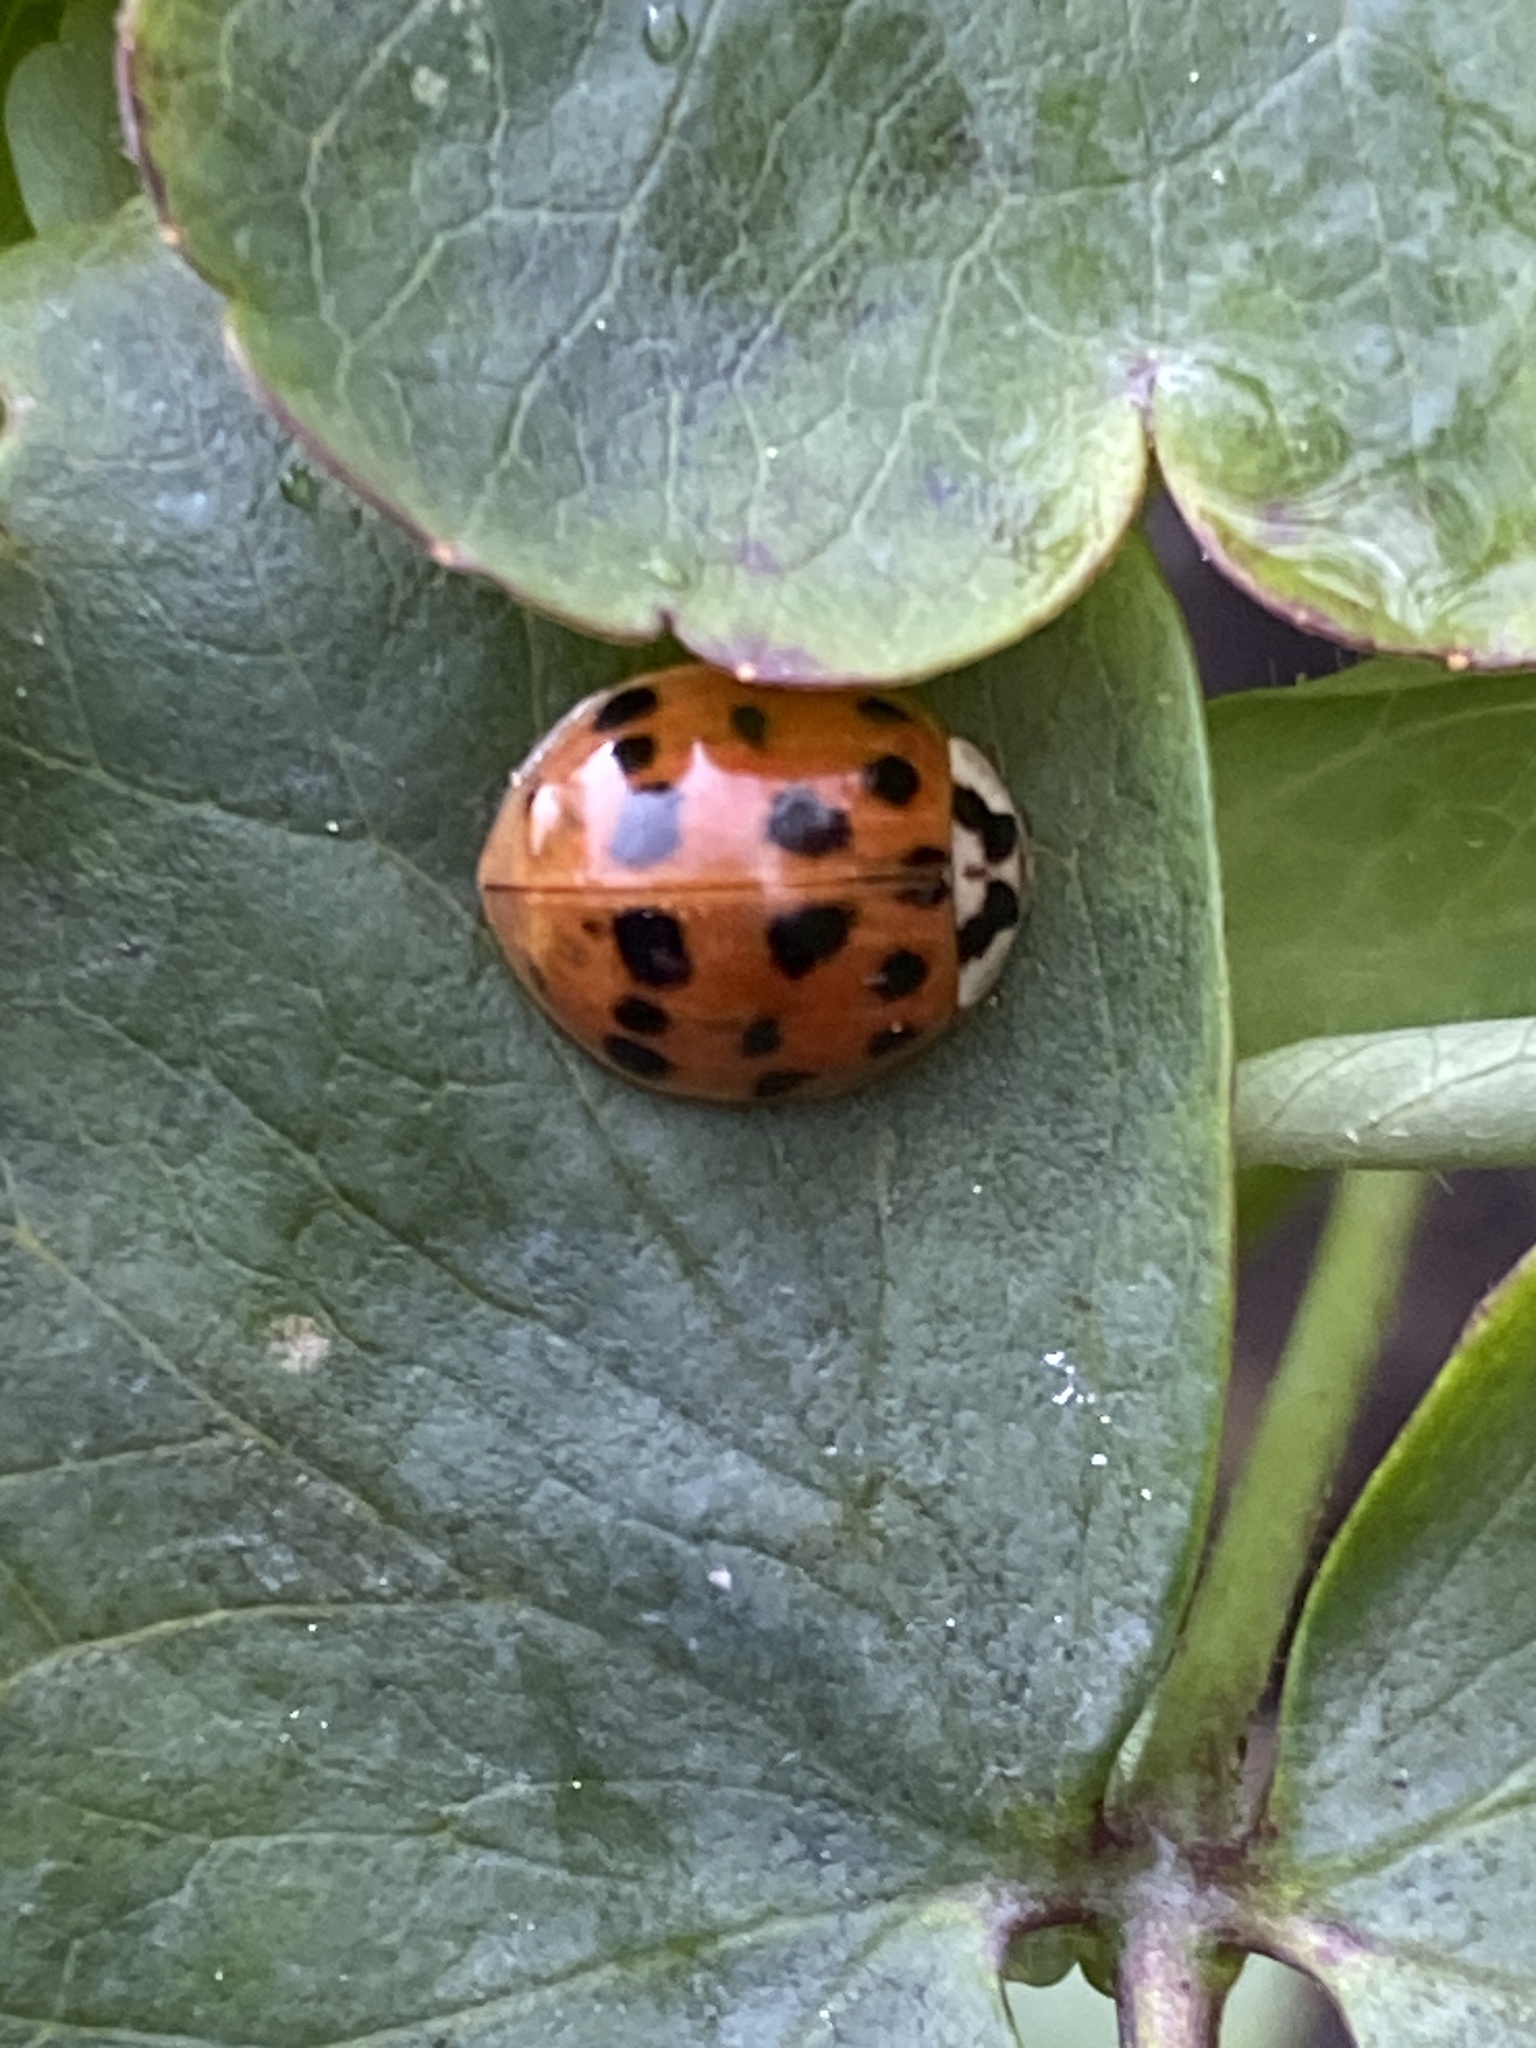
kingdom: Animalia
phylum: Arthropoda
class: Insecta
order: Coleoptera
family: Coccinellidae
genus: Harmonia
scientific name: Harmonia axyridis
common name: Harlequin ladybird
